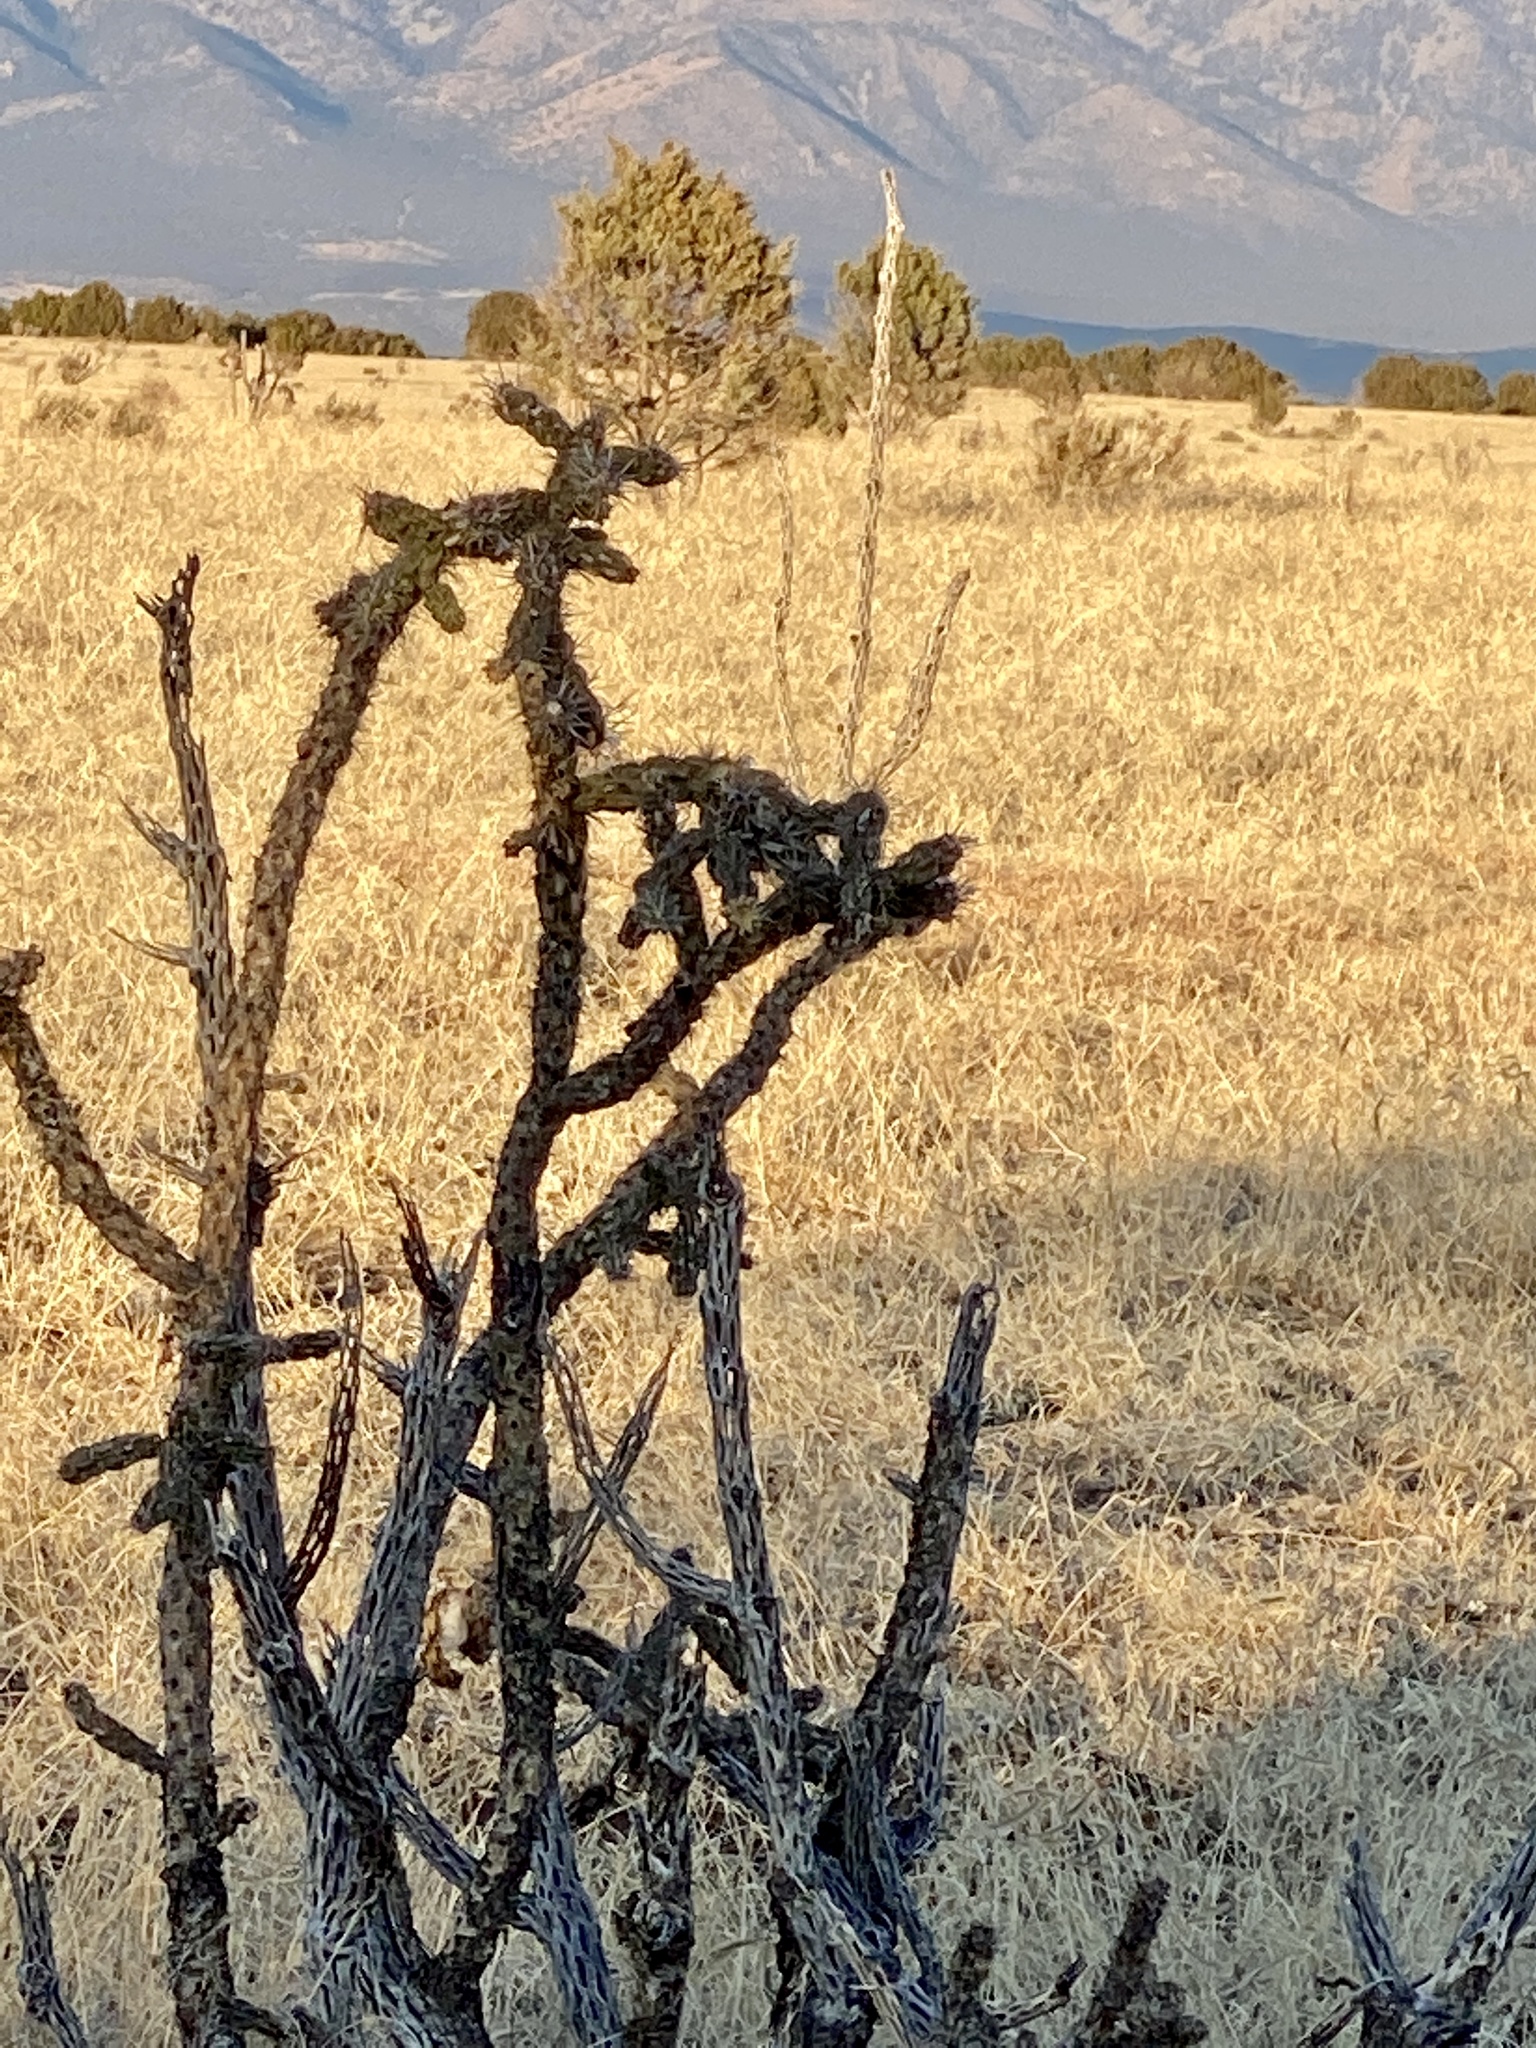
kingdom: Plantae
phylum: Tracheophyta
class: Magnoliopsida
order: Caryophyllales
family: Cactaceae
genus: Cylindropuntia
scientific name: Cylindropuntia imbricata
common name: Candelabrum cactus
